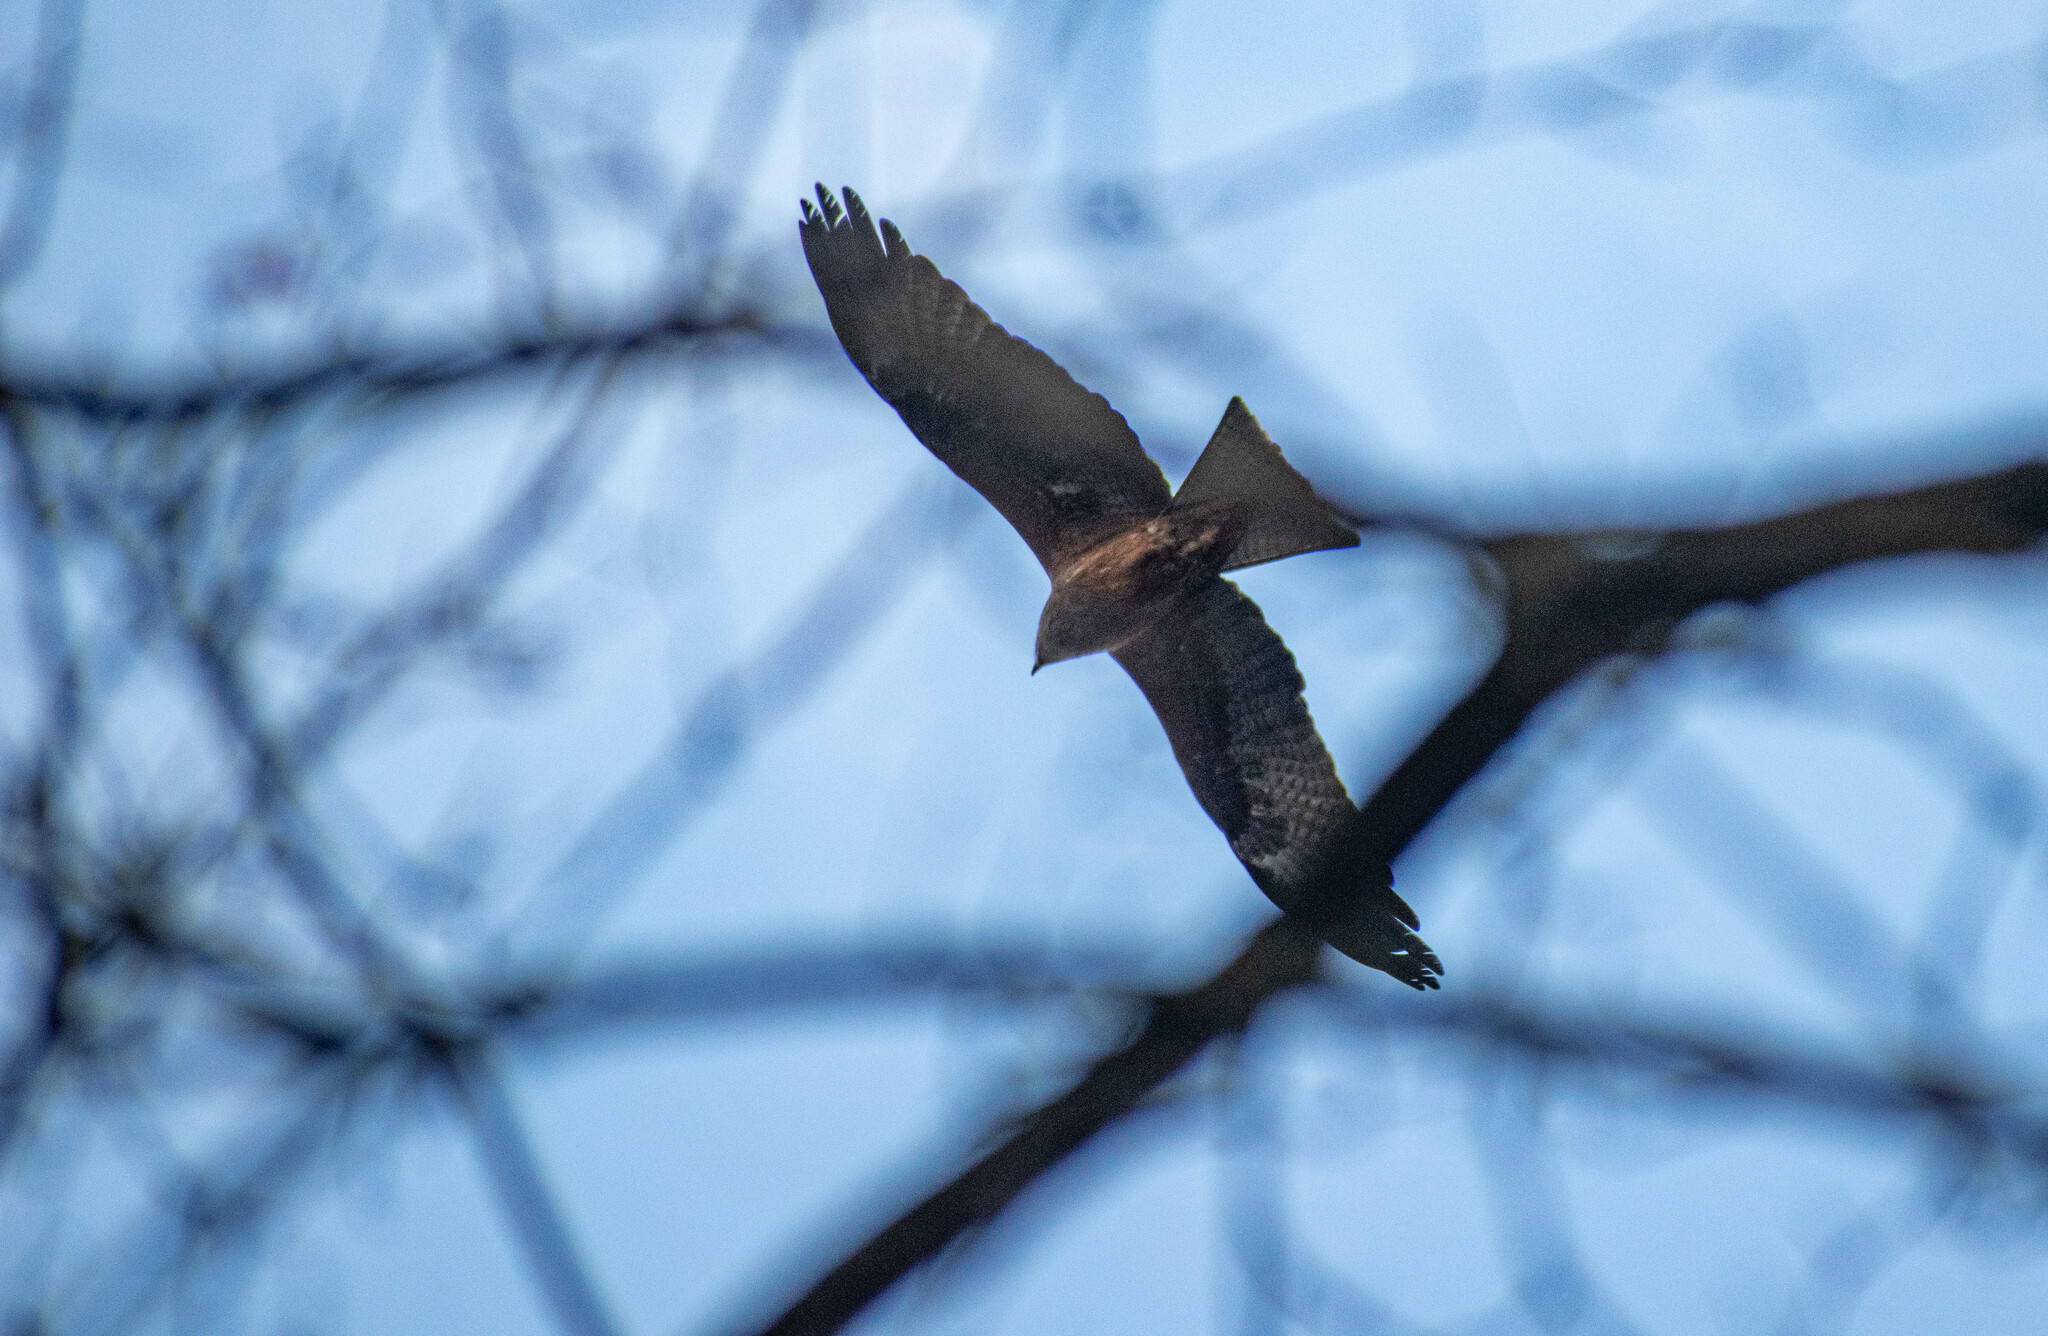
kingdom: Animalia
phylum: Chordata
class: Aves
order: Accipitriformes
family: Accipitridae
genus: Milvus
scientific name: Milvus migrans
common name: Black kite
